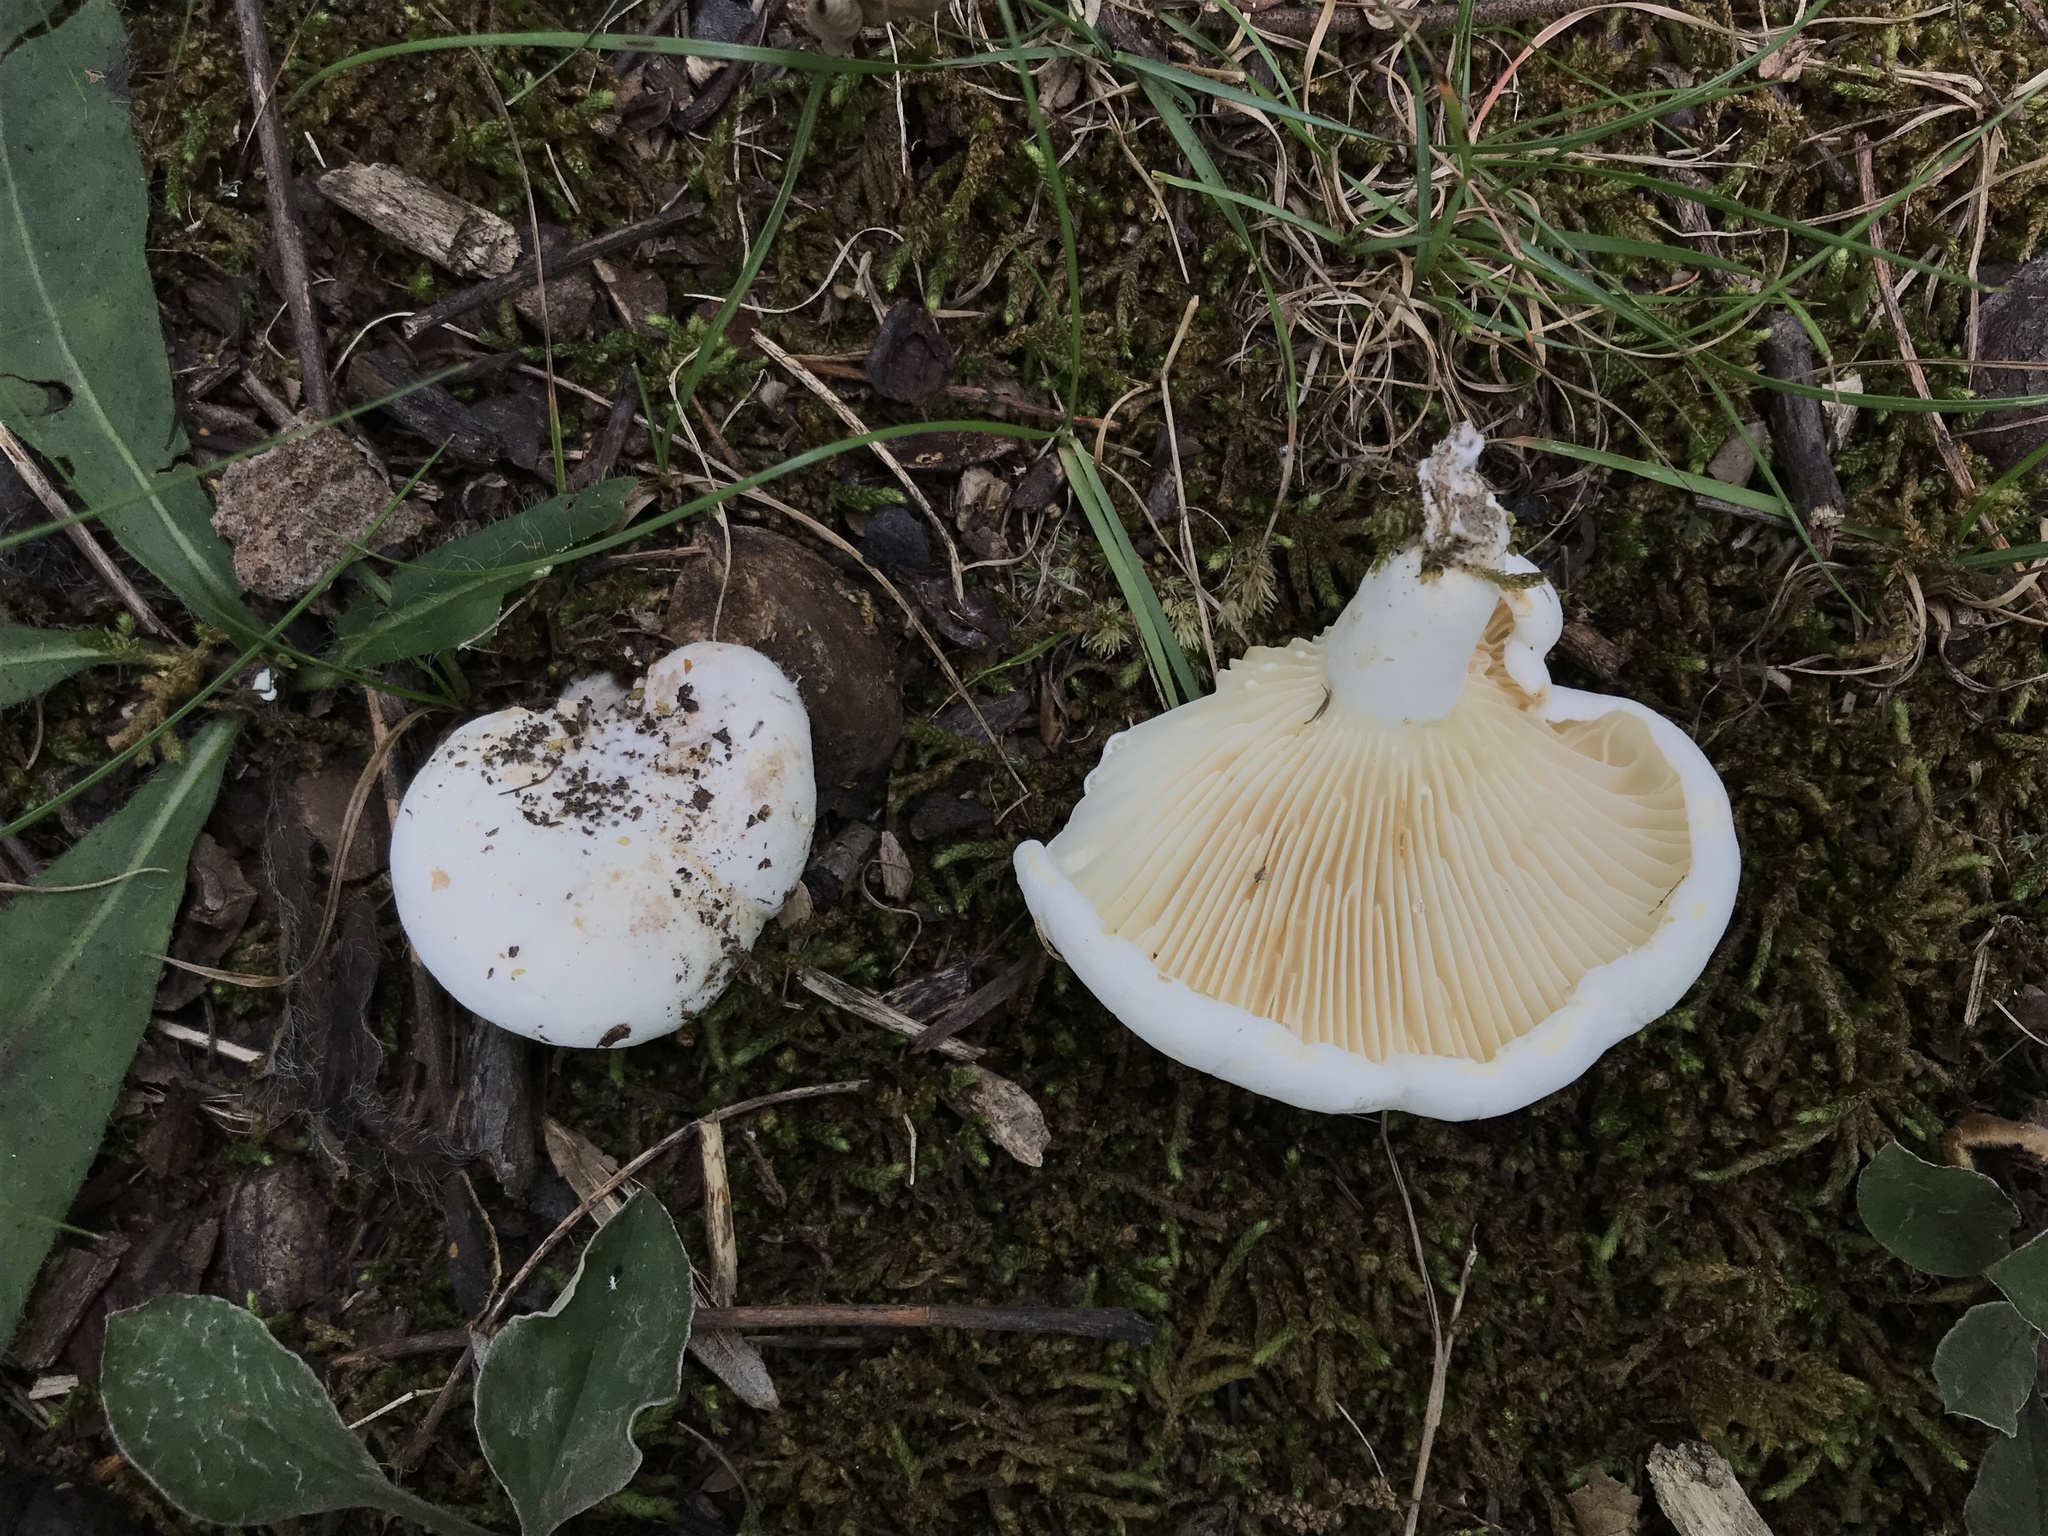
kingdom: Fungi
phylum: Basidiomycota
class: Agaricomycetes
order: Russulales
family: Russulaceae
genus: Lactifluus
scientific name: Lactifluus subvellereus
